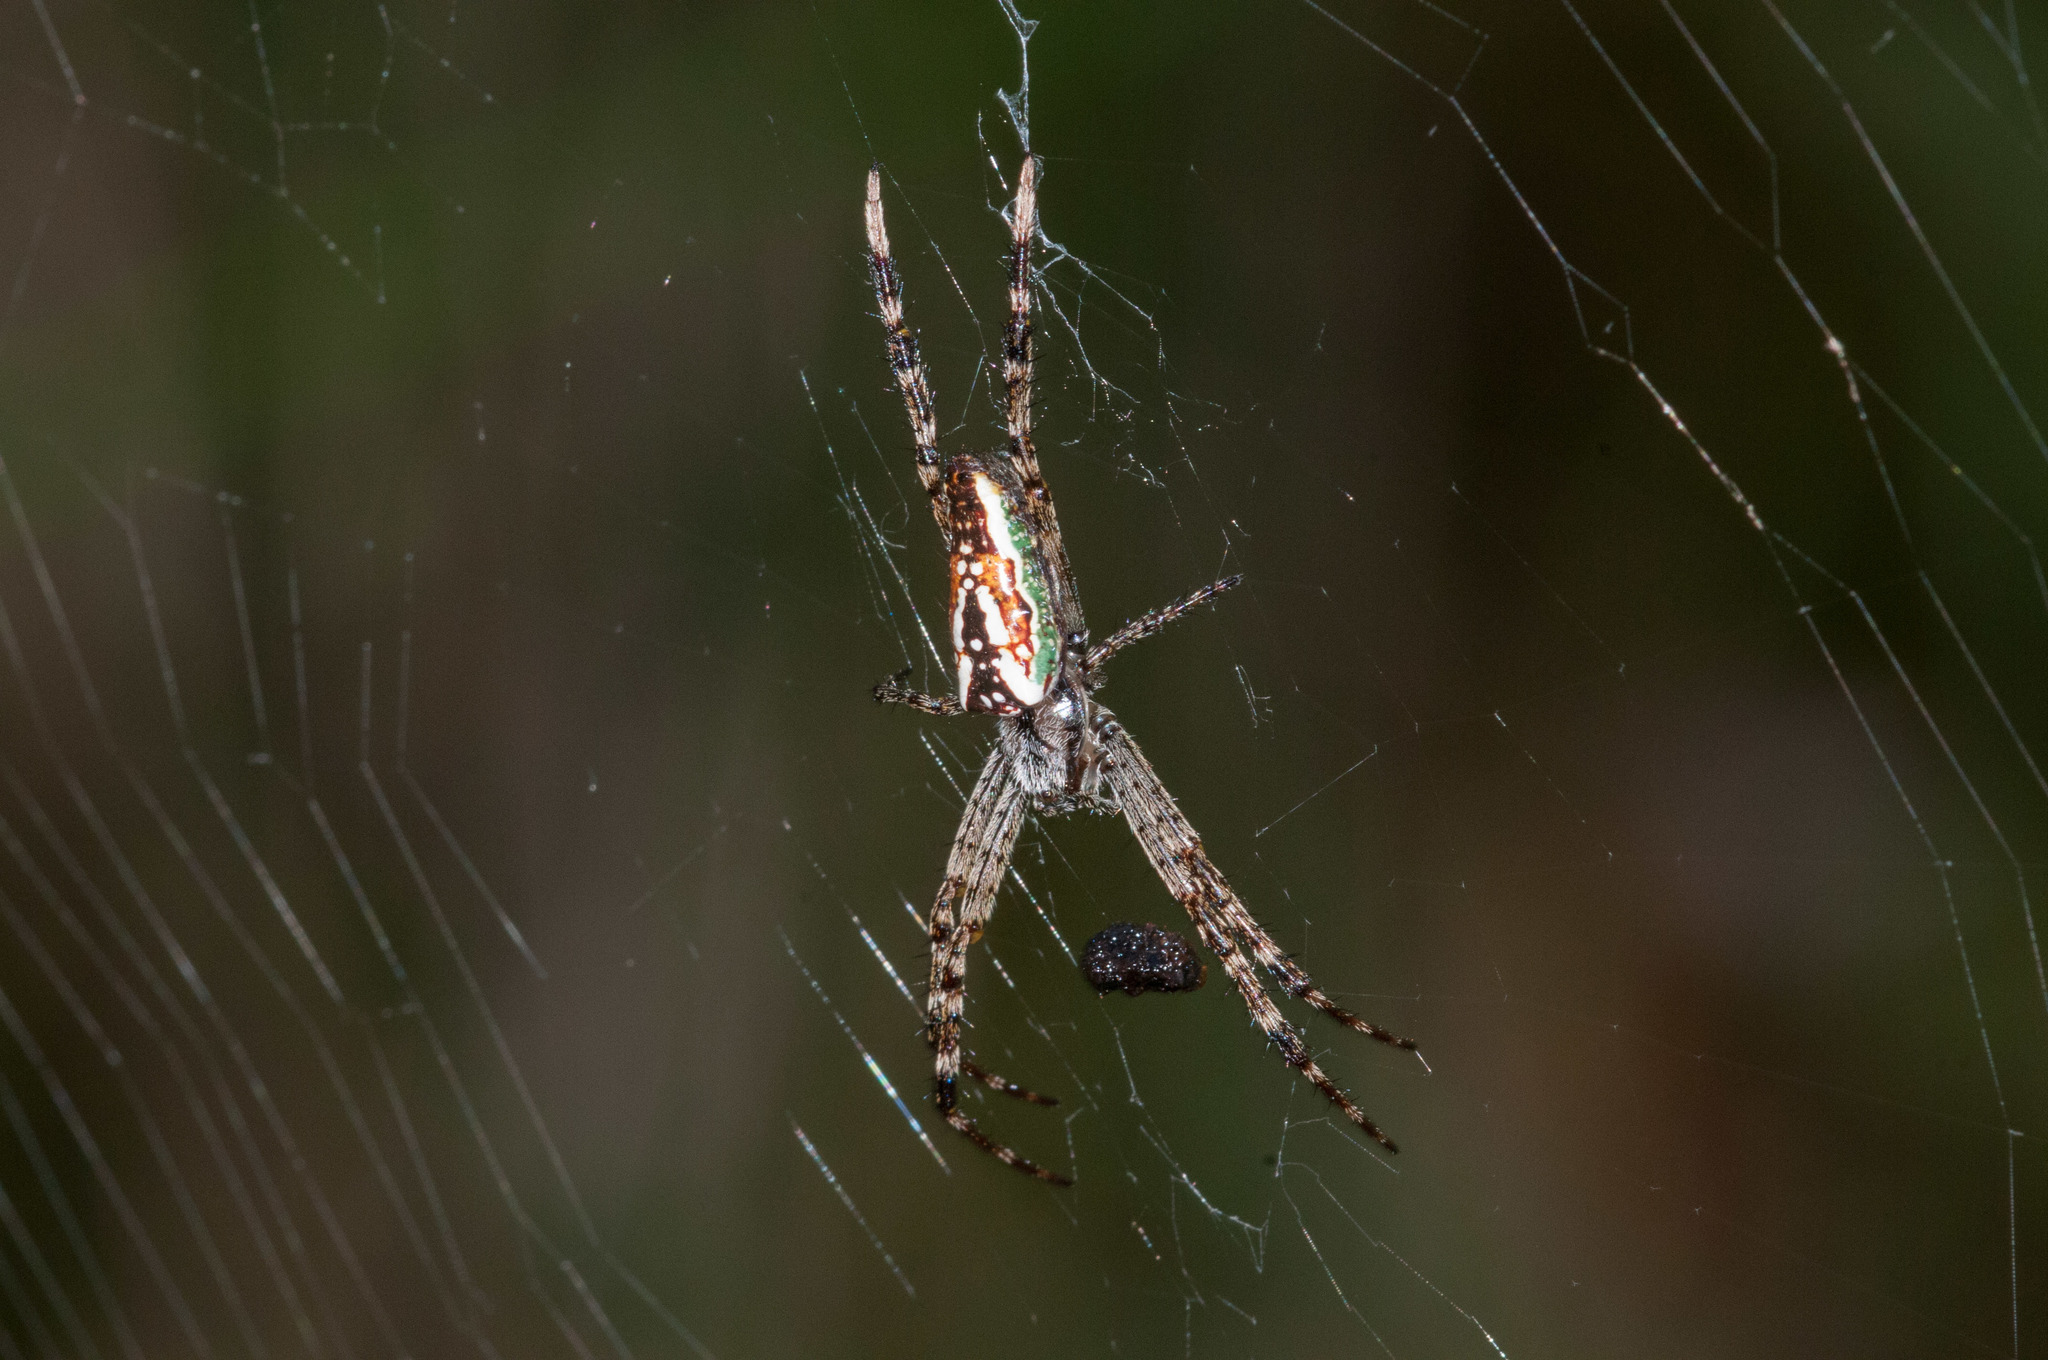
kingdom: Animalia
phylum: Arthropoda
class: Arachnida
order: Araneae
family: Araneidae
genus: Plebs
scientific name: Plebs bradleyi
